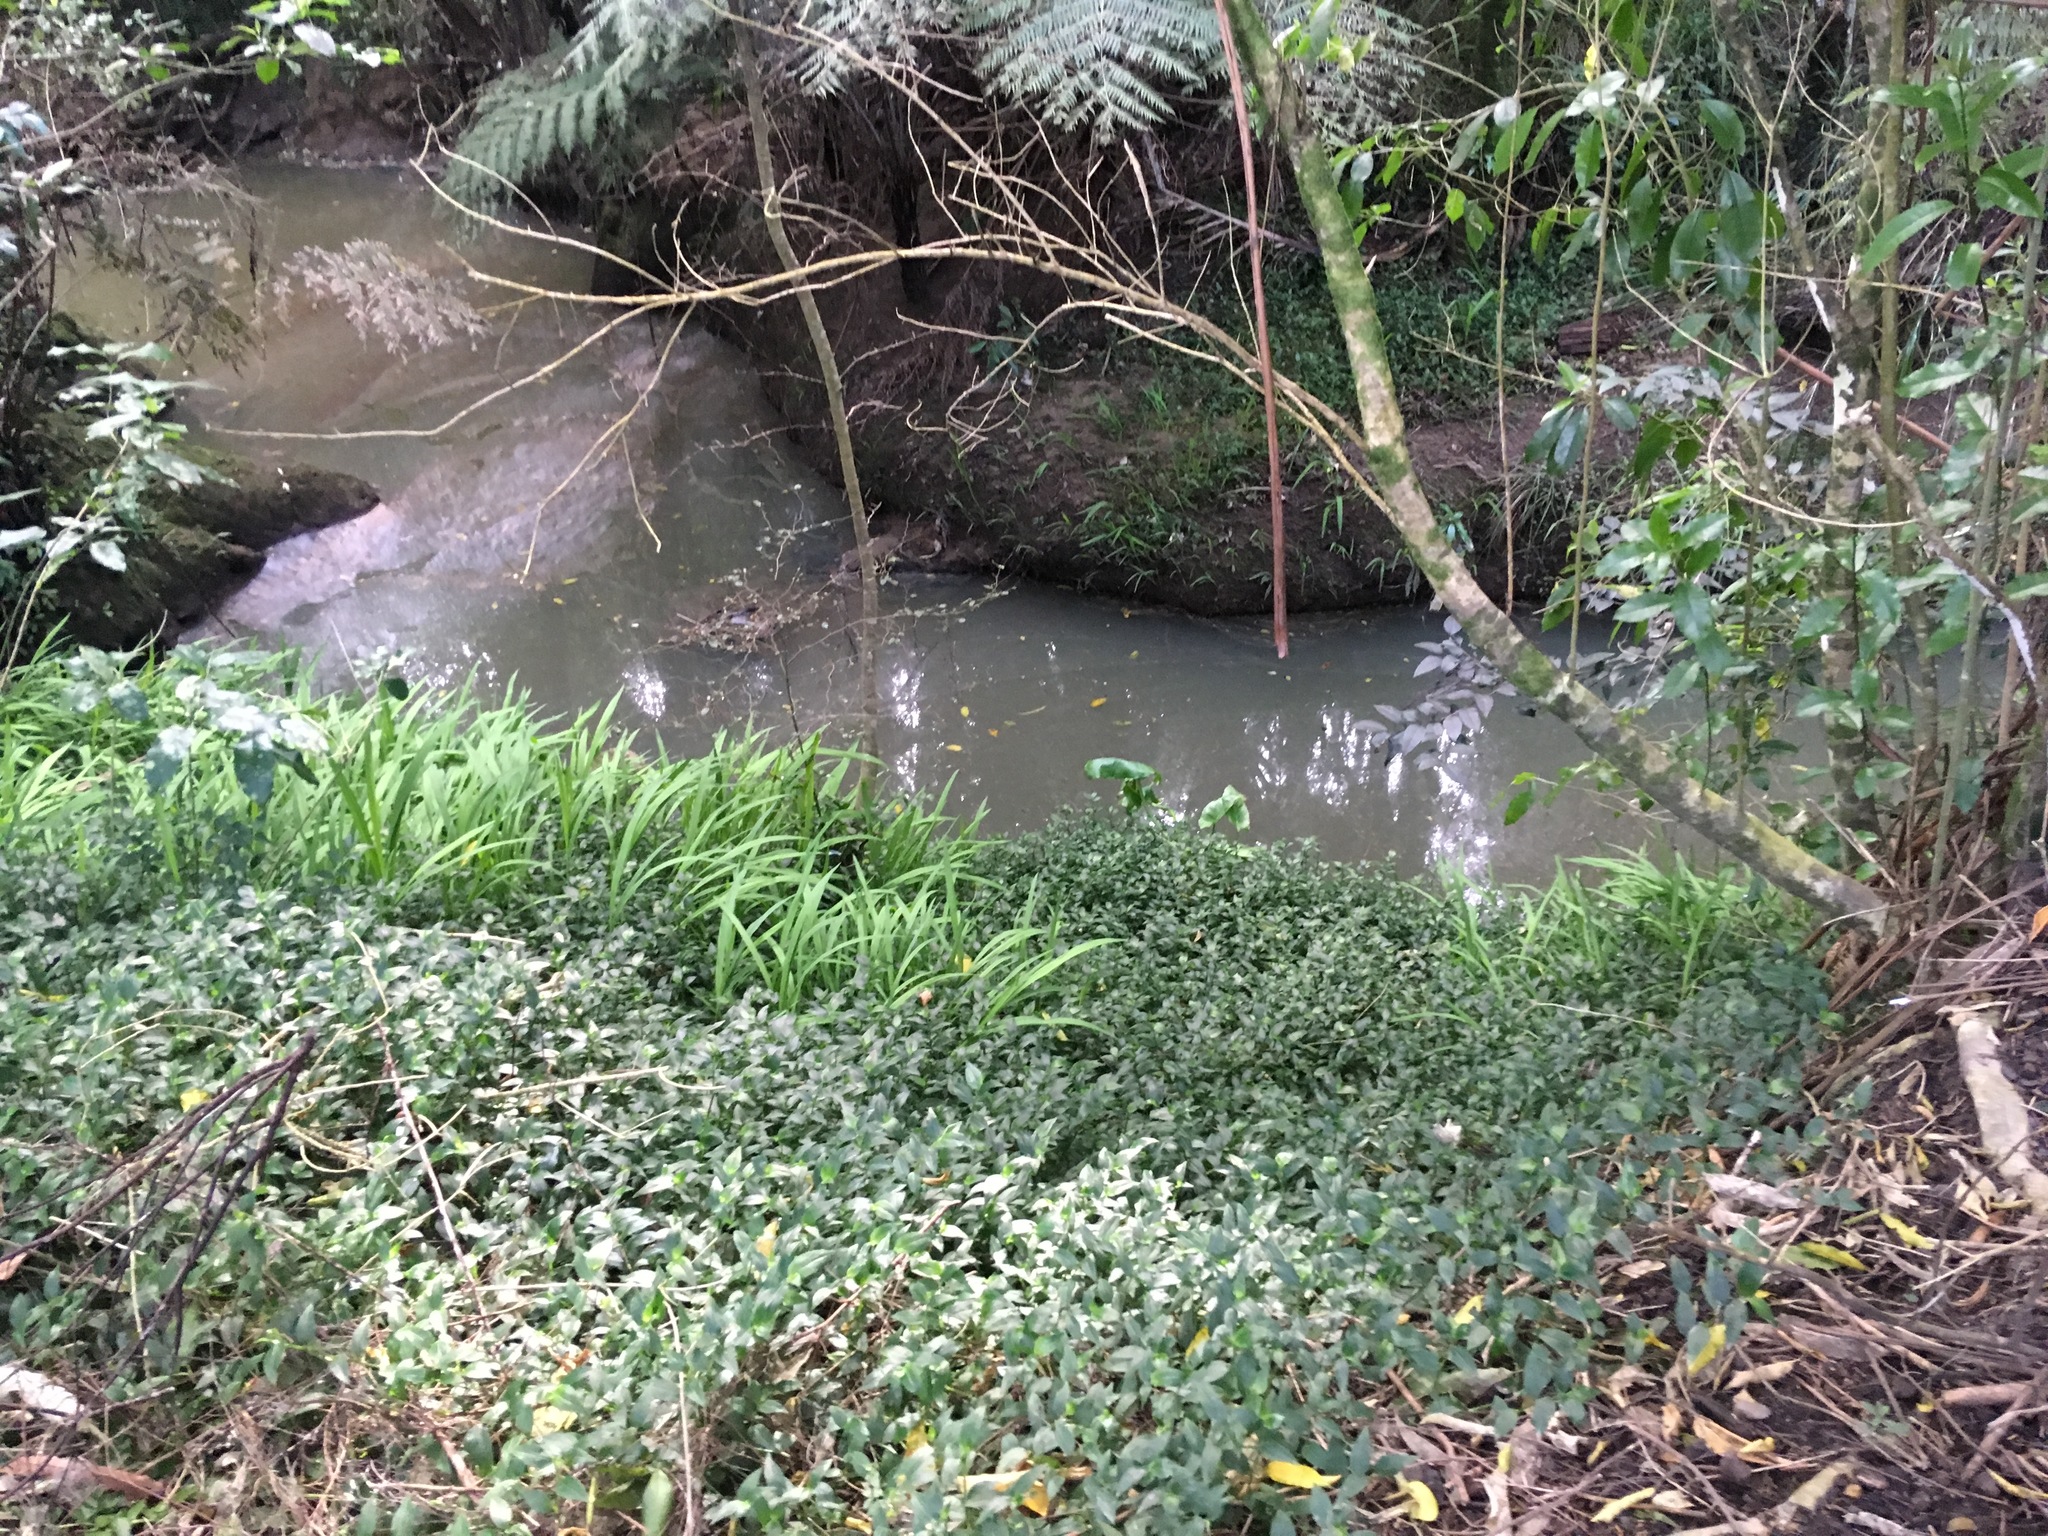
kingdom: Plantae
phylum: Tracheophyta
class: Liliopsida
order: Asparagales
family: Iridaceae
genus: Crocosmia
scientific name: Crocosmia crocosmiiflora
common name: Montbretia
